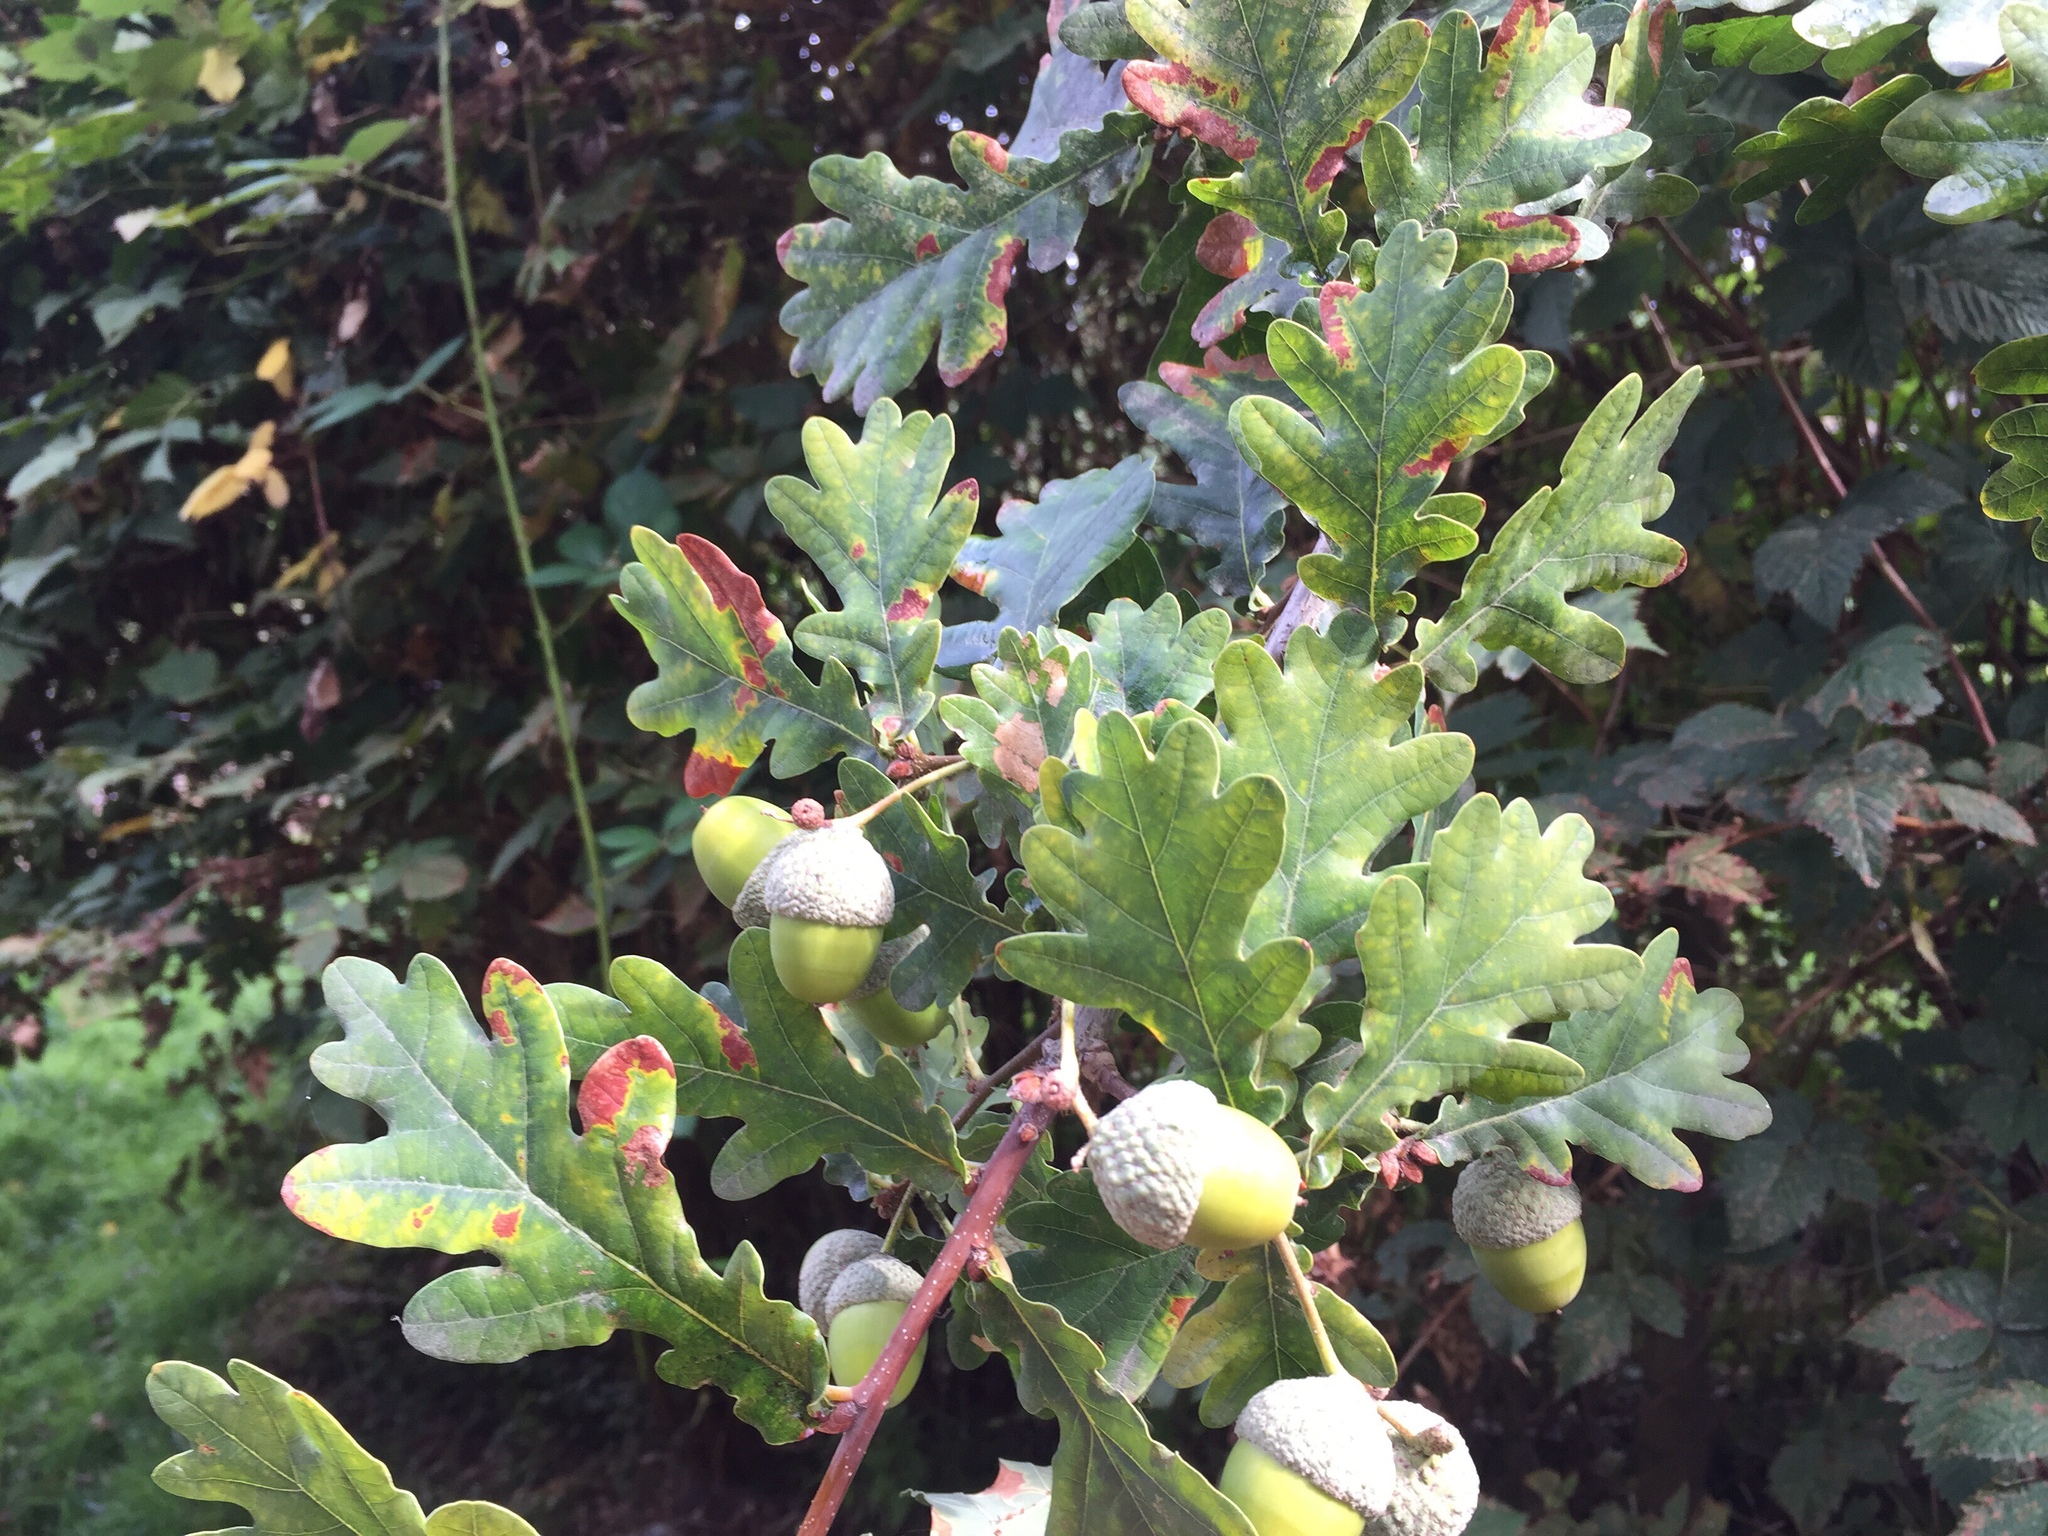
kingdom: Plantae
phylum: Tracheophyta
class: Magnoliopsida
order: Fagales
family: Fagaceae
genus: Quercus
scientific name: Quercus robur
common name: Pedunculate oak
